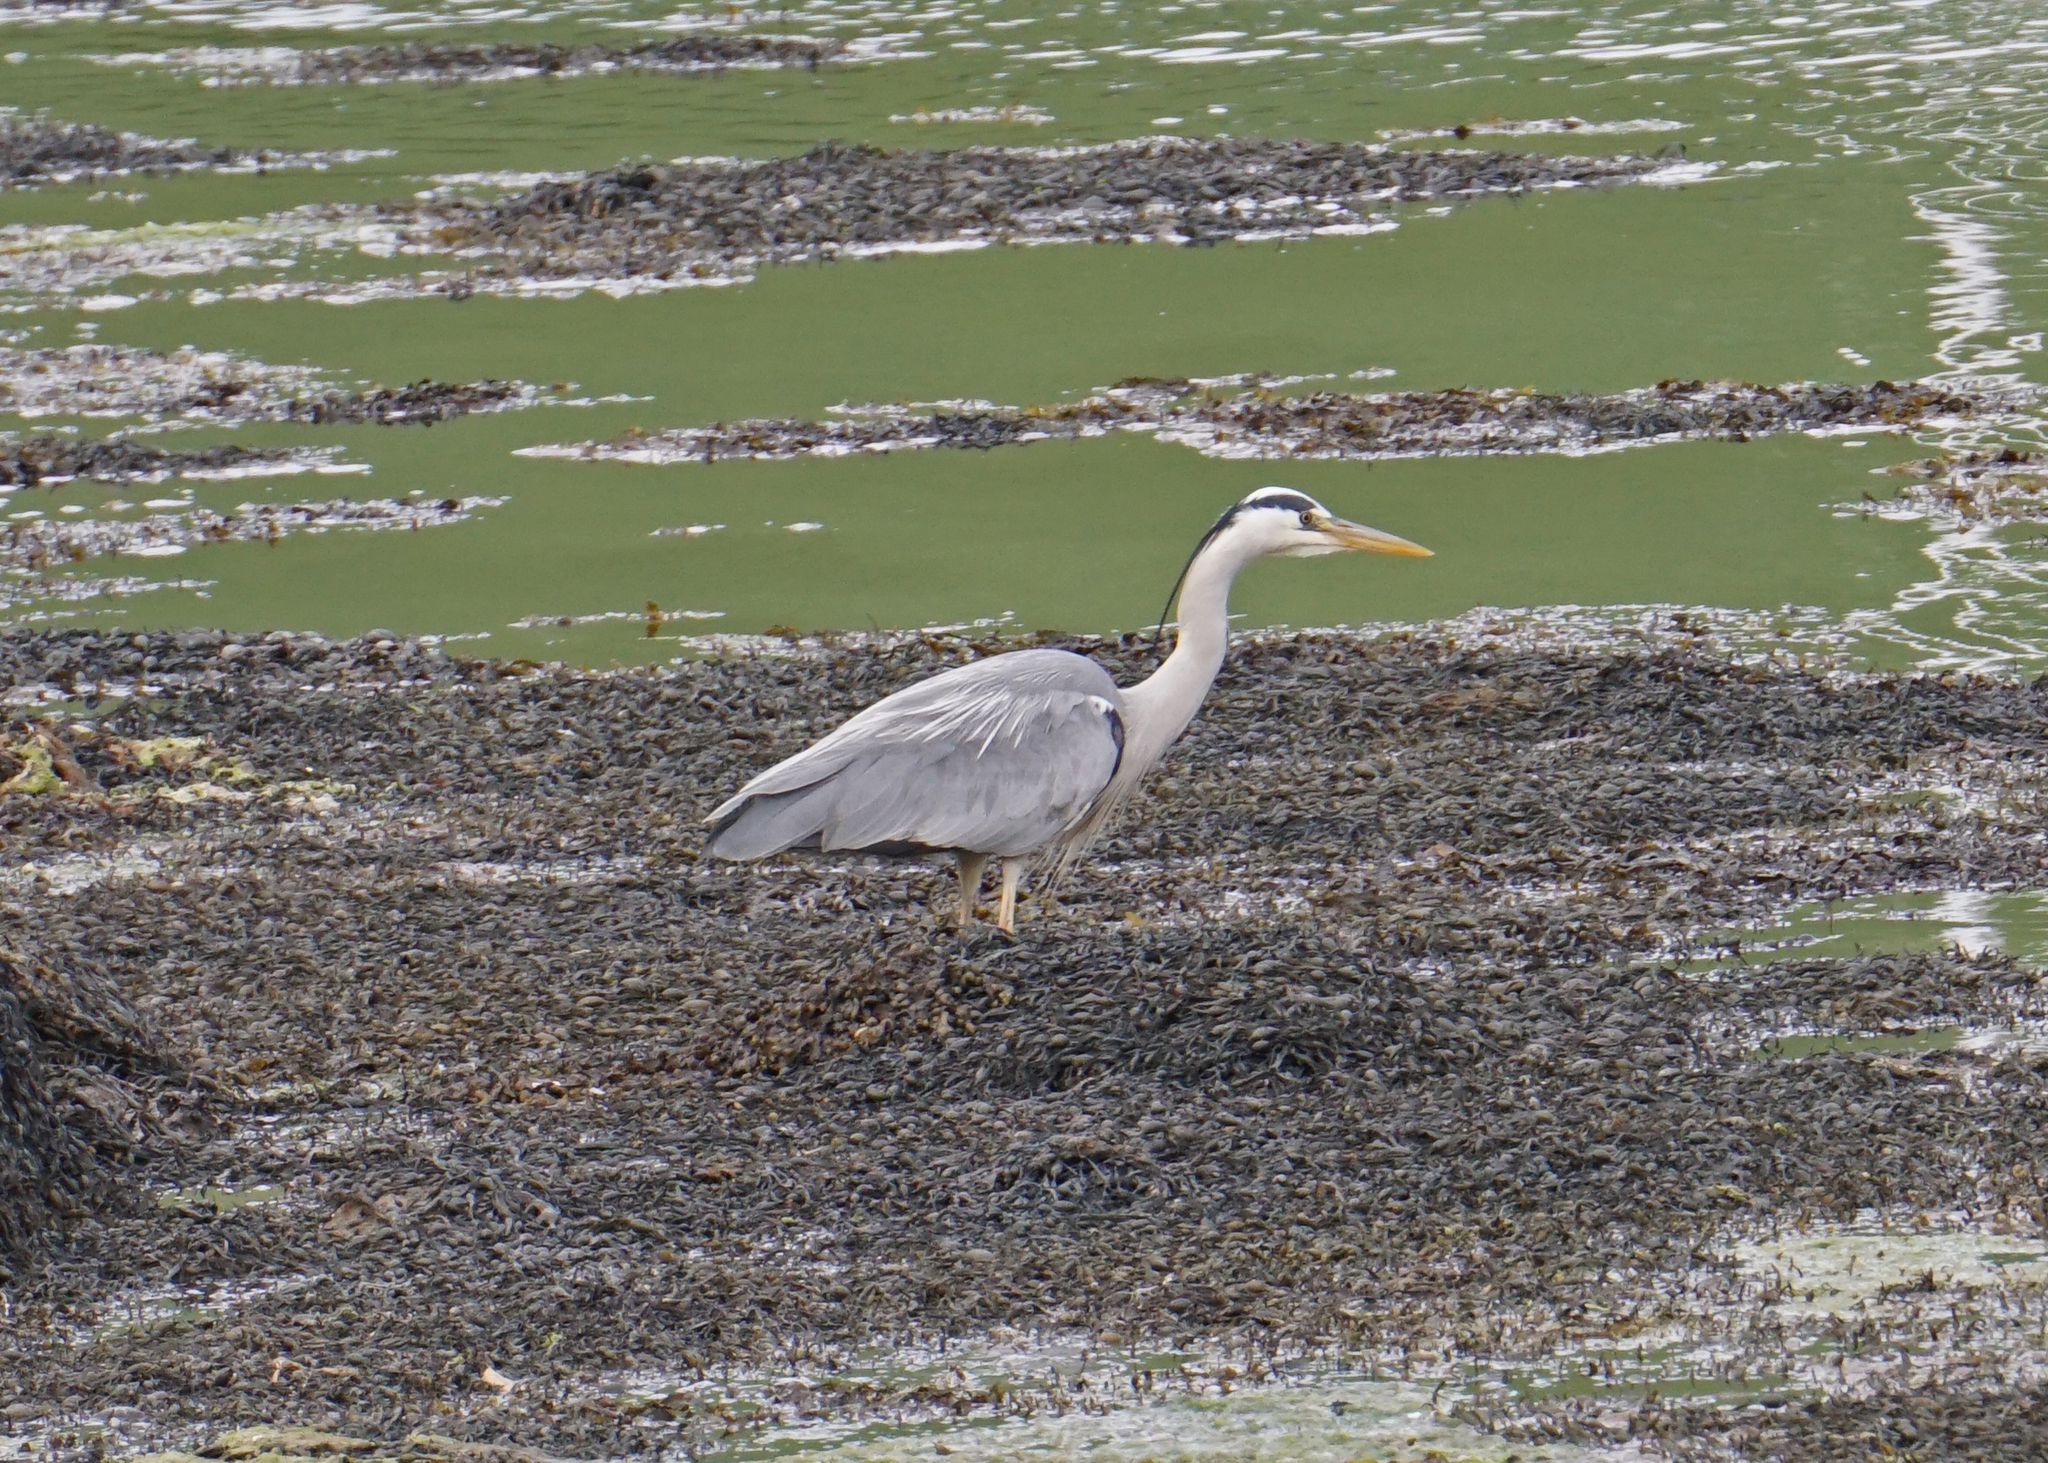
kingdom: Animalia
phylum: Chordata
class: Aves
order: Pelecaniformes
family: Ardeidae
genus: Ardea
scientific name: Ardea cinerea
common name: Grey heron
